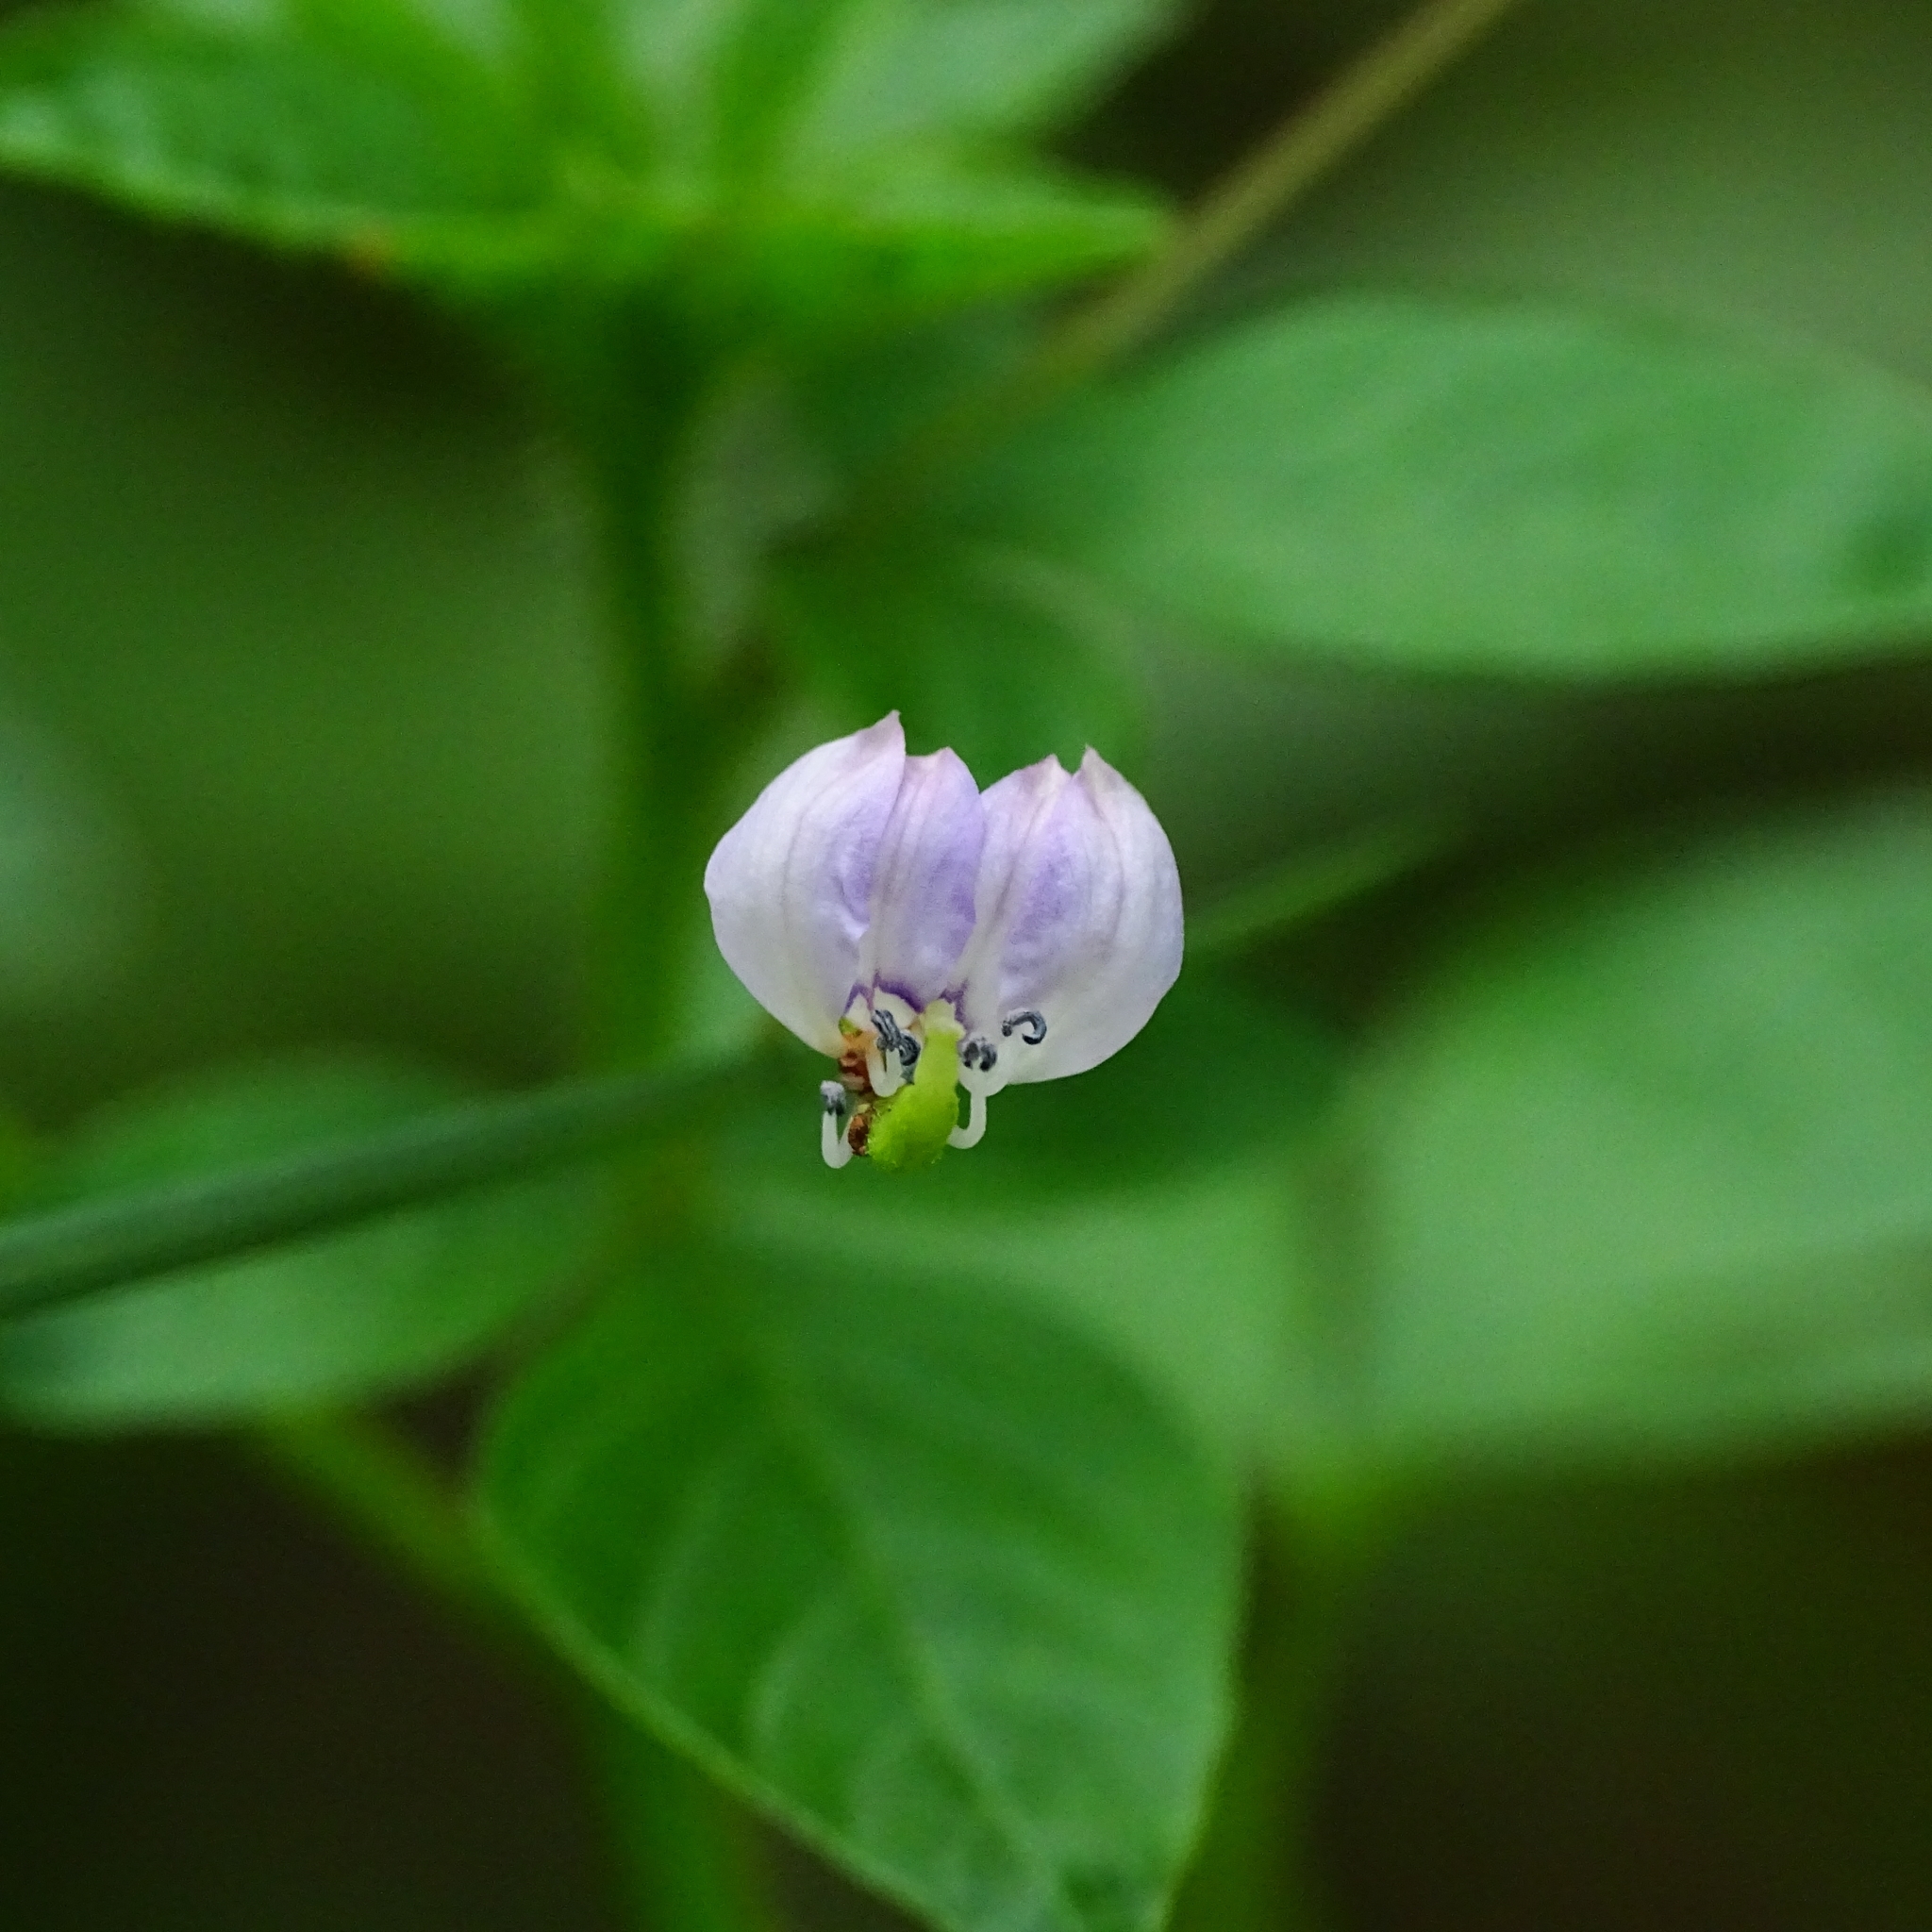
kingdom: Plantae
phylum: Tracheophyta
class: Magnoliopsida
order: Brassicales
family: Cleomaceae
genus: Sieruela
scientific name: Sieruela rutidosperma
